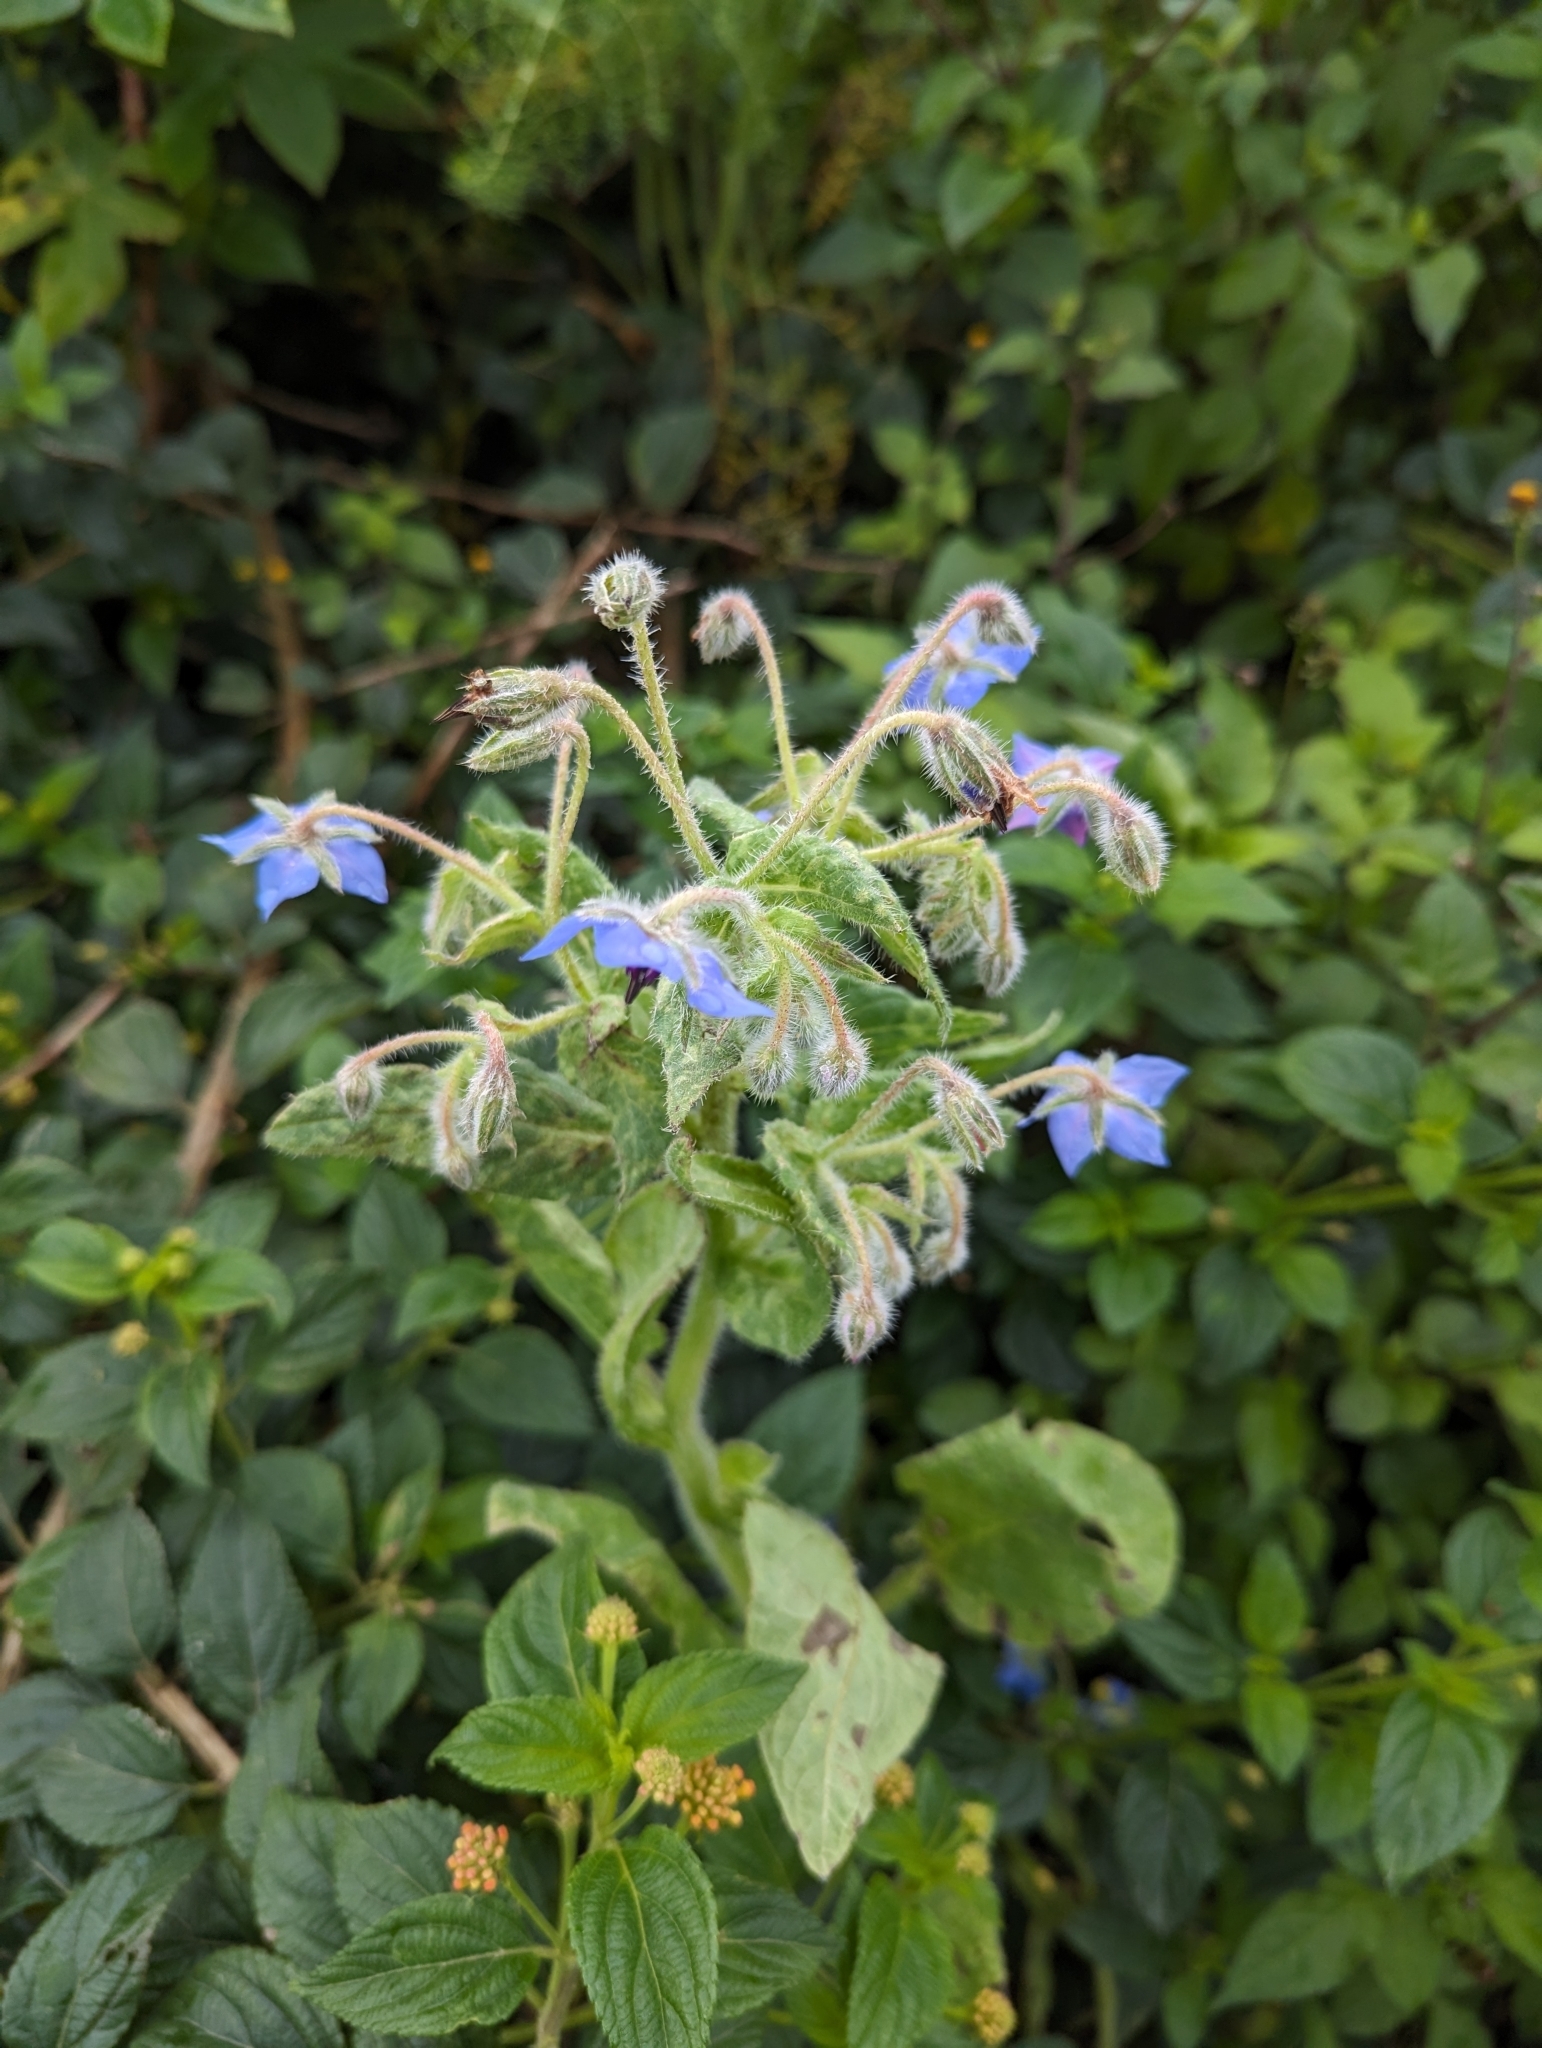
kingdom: Plantae
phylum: Tracheophyta
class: Magnoliopsida
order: Boraginales
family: Boraginaceae
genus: Borago
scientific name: Borago officinalis
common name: Borage
